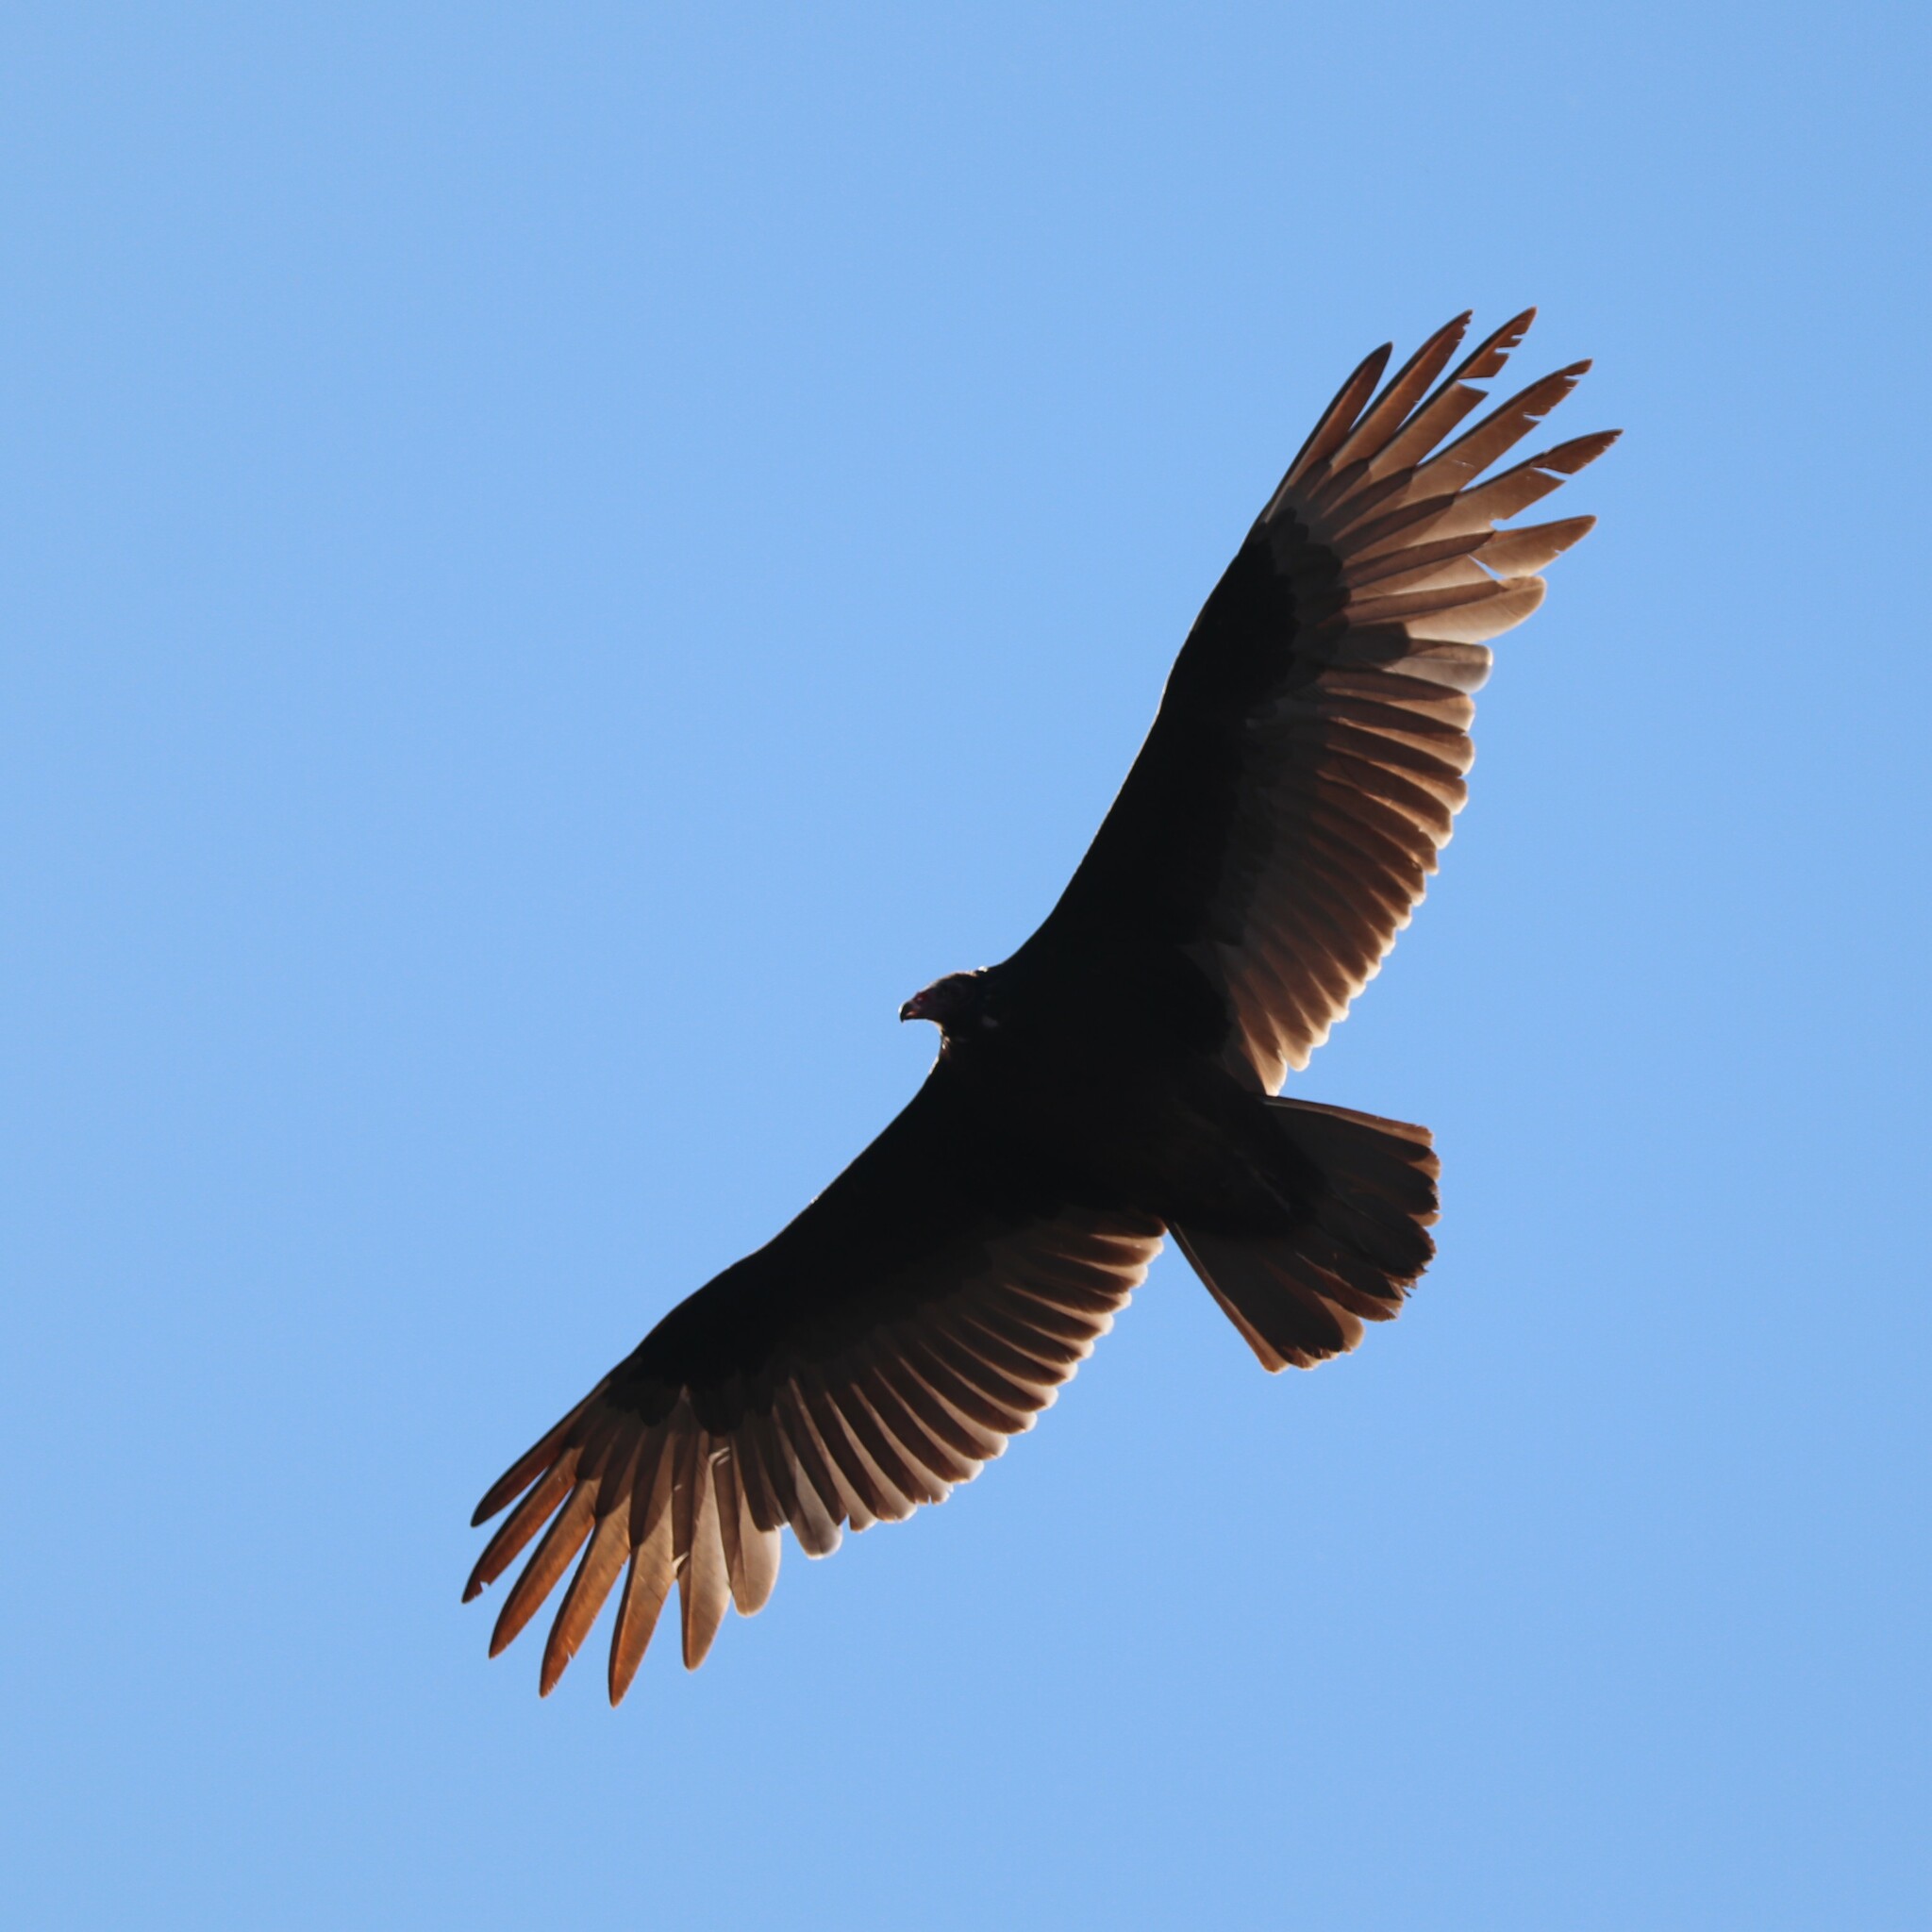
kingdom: Animalia
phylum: Chordata
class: Aves
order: Accipitriformes
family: Cathartidae
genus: Cathartes
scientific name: Cathartes aura
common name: Turkey vulture
